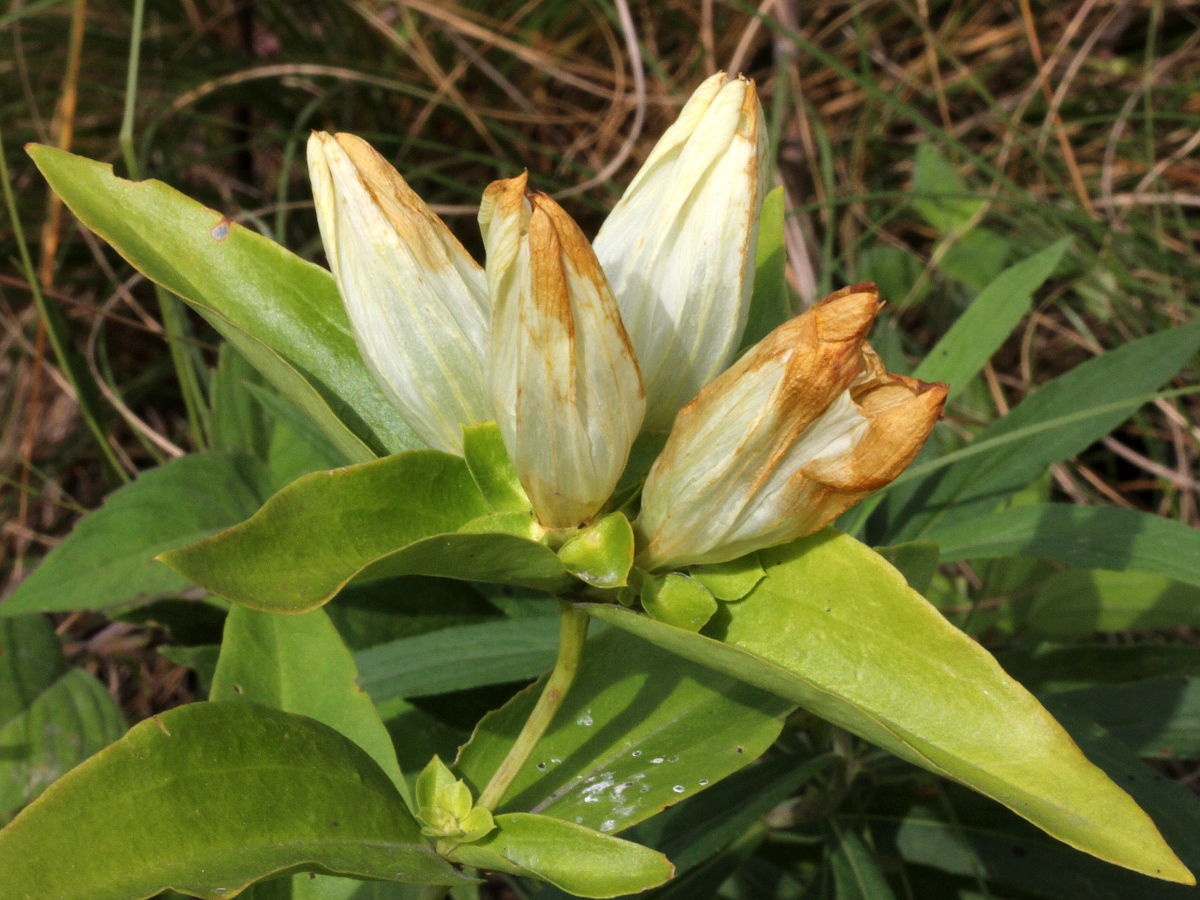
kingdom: Plantae
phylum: Tracheophyta
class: Magnoliopsida
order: Gentianales
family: Gentianaceae
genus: Gentiana
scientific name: Gentiana alba
